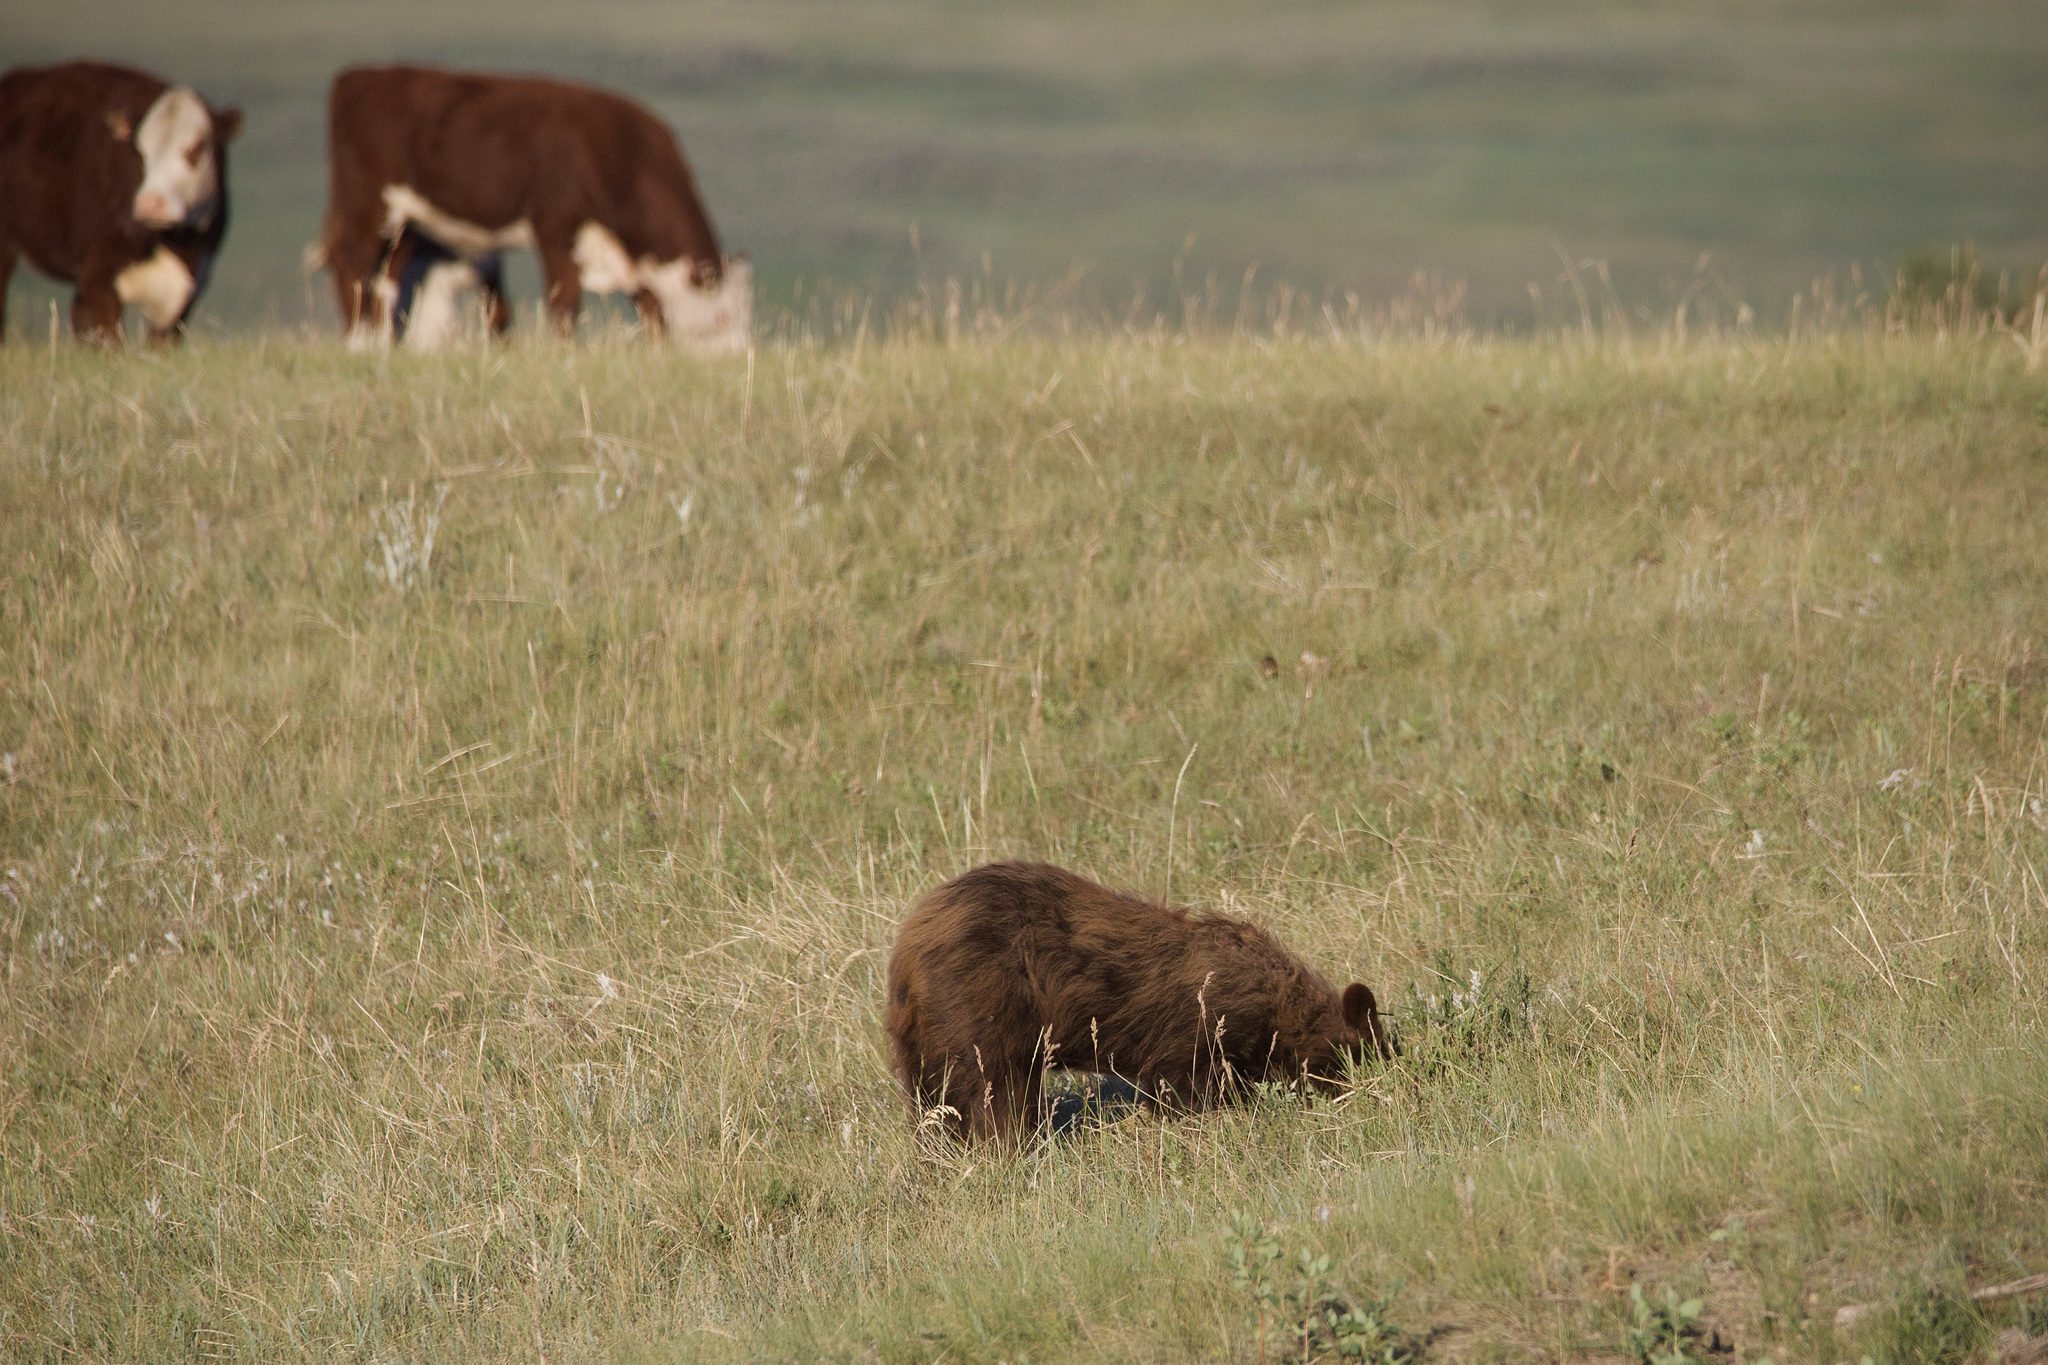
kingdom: Animalia
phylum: Chordata
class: Mammalia
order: Carnivora
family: Ursidae
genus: Ursus
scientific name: Ursus americanus
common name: American black bear
